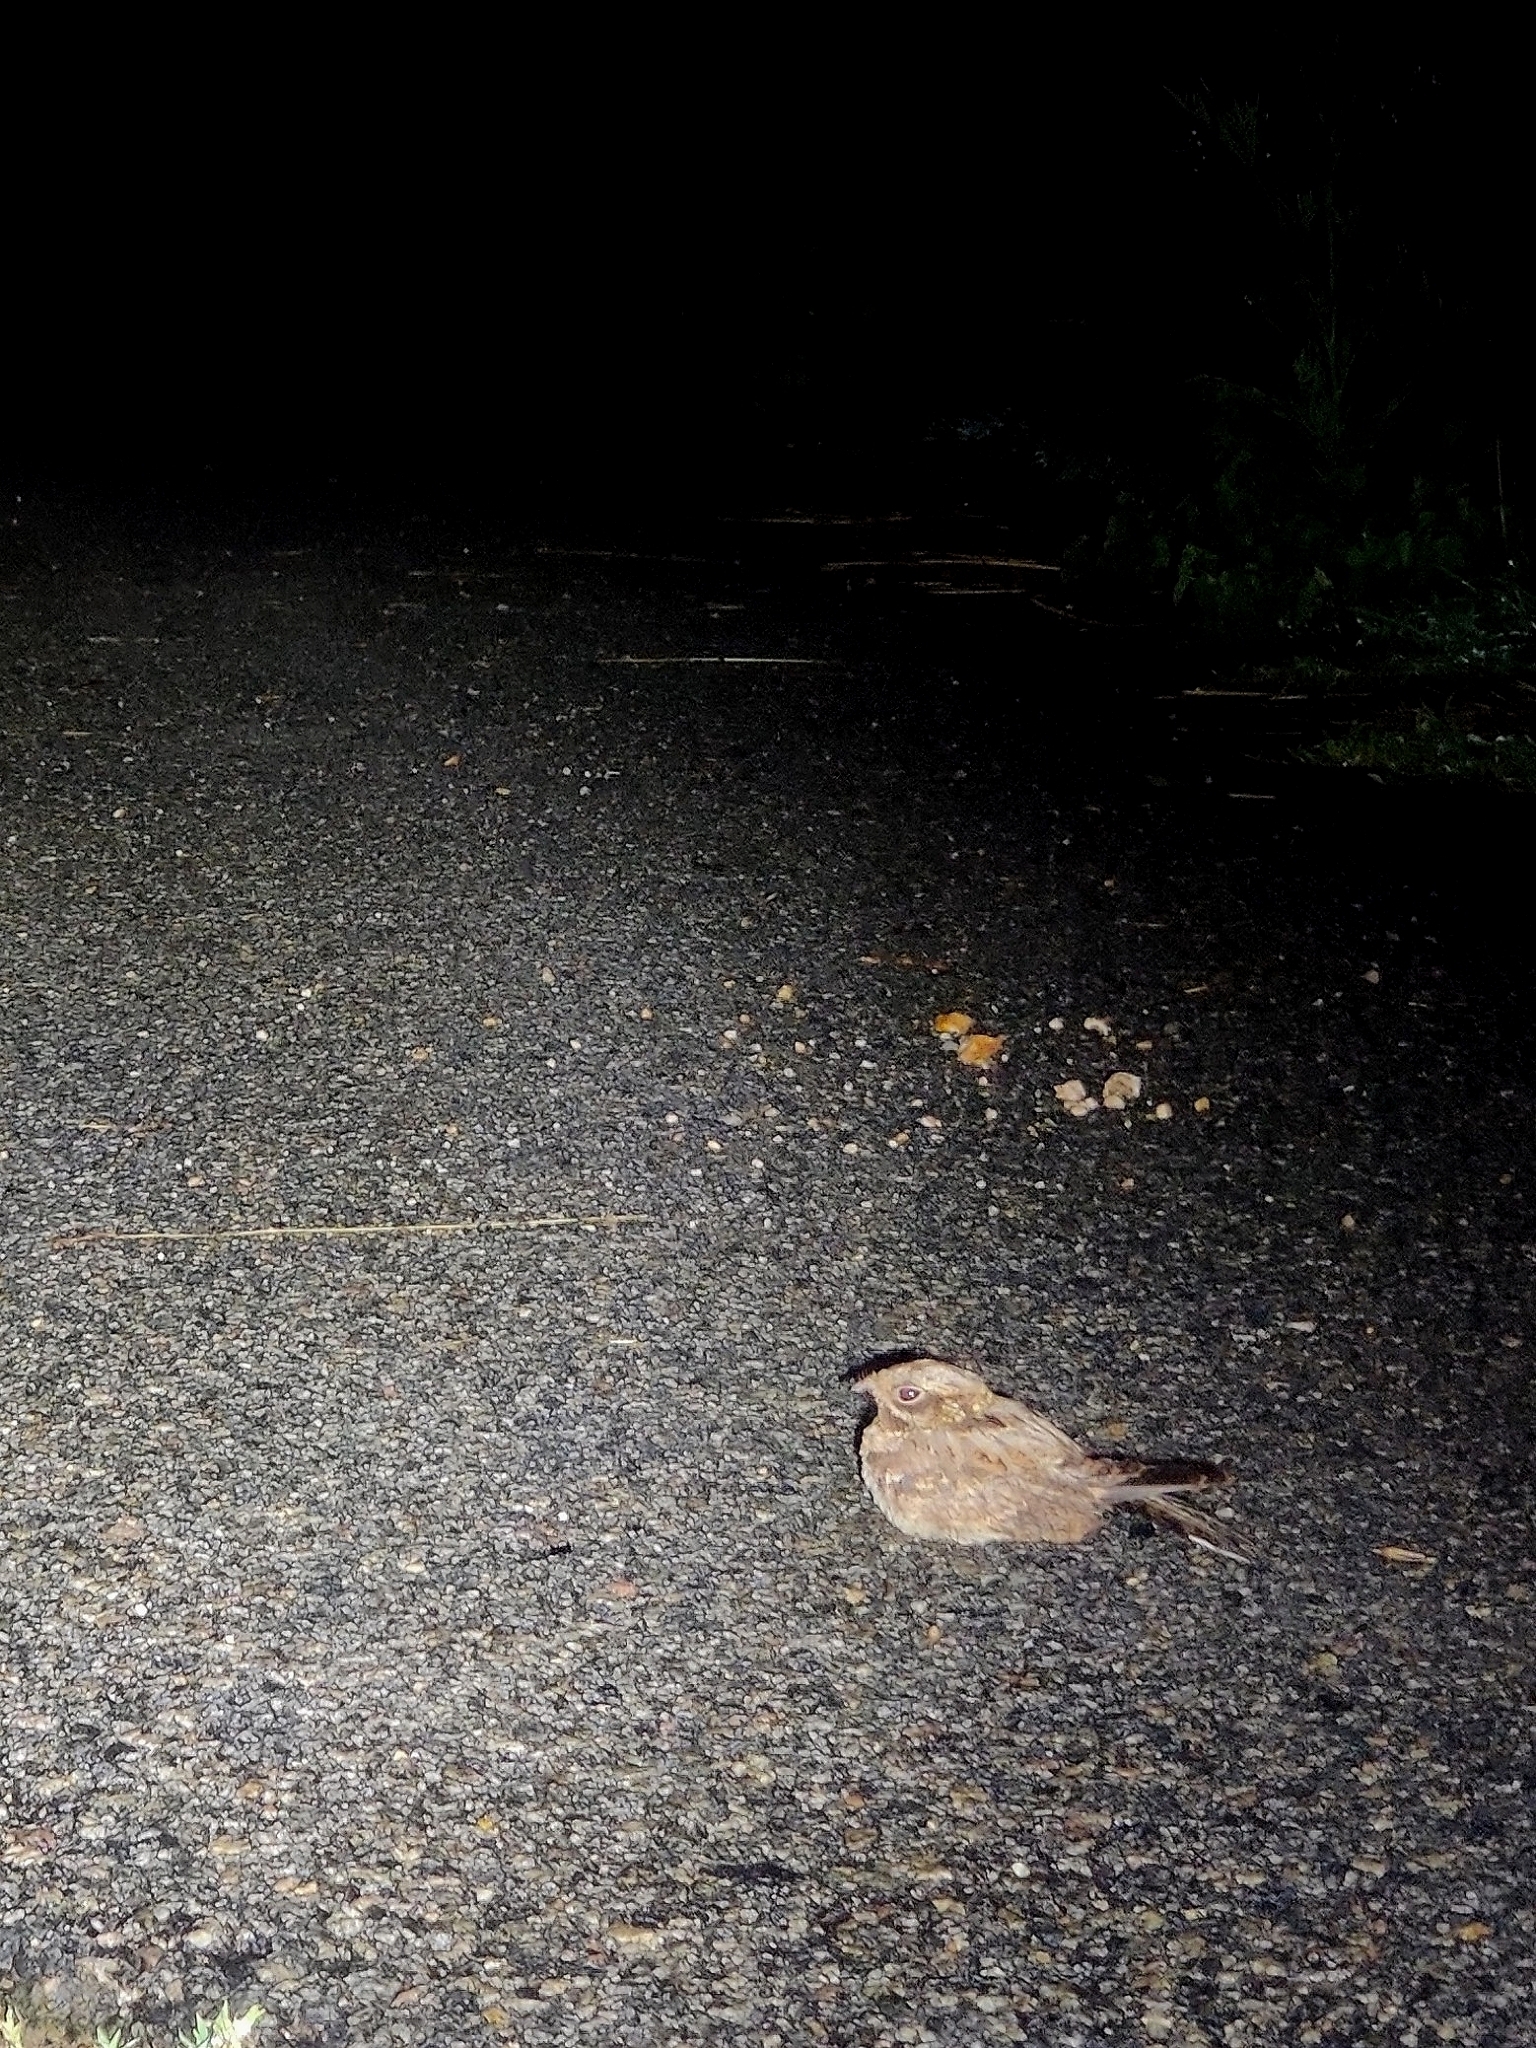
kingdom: Animalia
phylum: Chordata
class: Aves
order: Caprimulgiformes
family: Caprimulgidae
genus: Caprimulgus
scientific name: Caprimulgus asiaticus
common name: Indian nightjar
